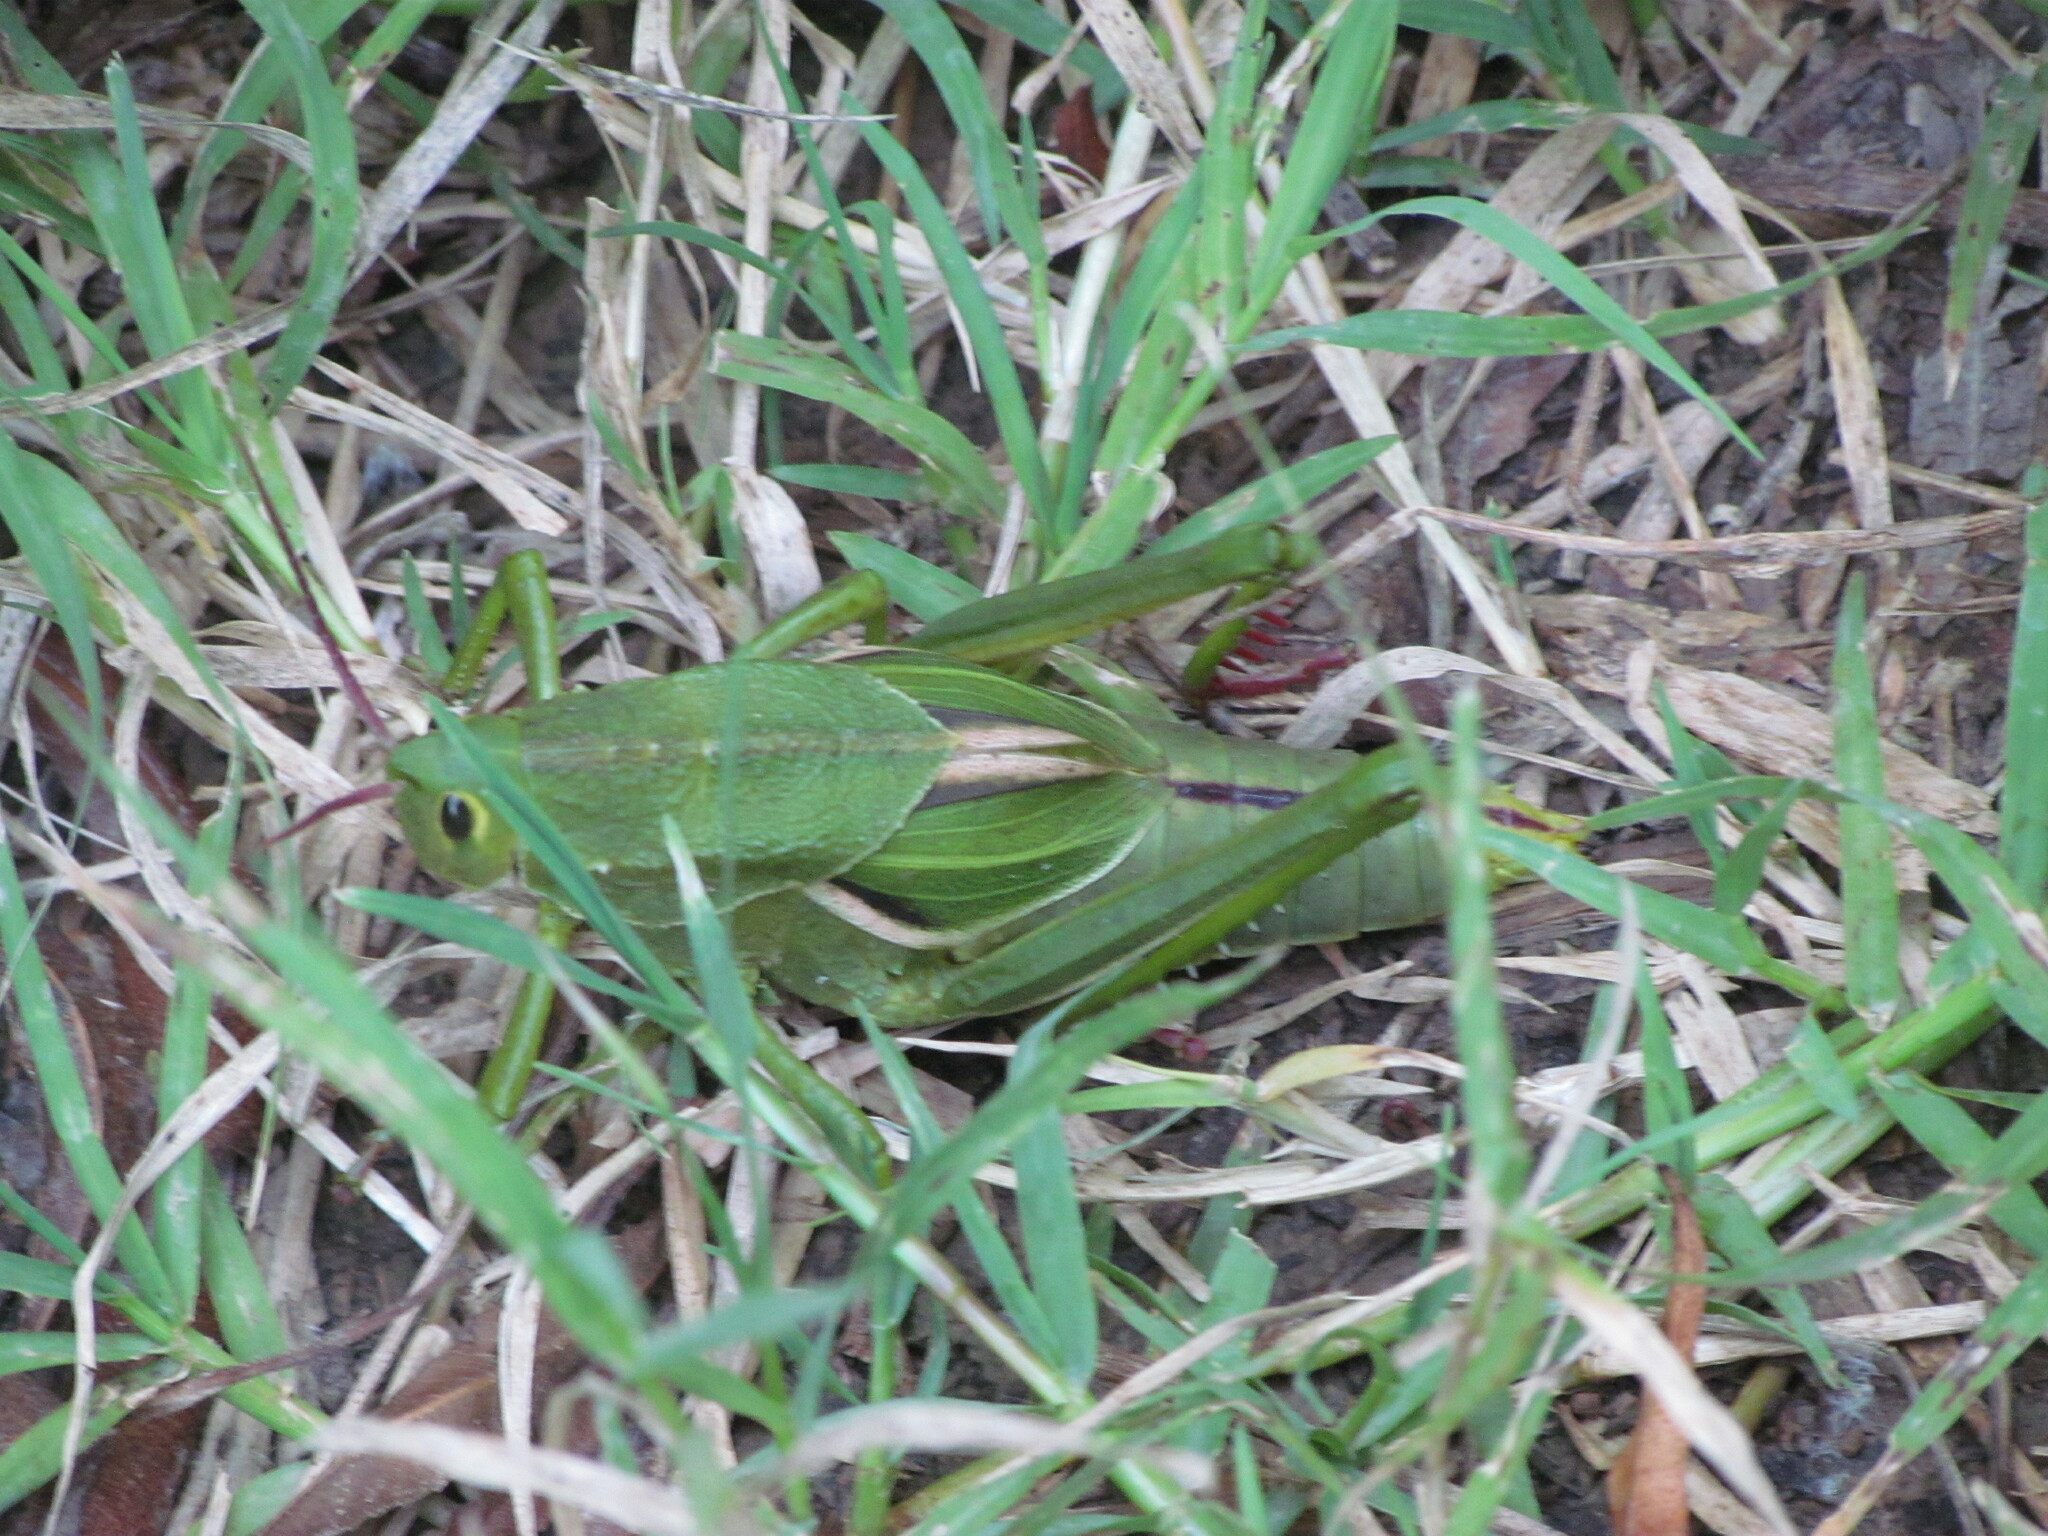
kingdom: Animalia
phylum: Arthropoda
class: Insecta
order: Orthoptera
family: Romaleidae
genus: Staleochlora
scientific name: Staleochlora viridicata
